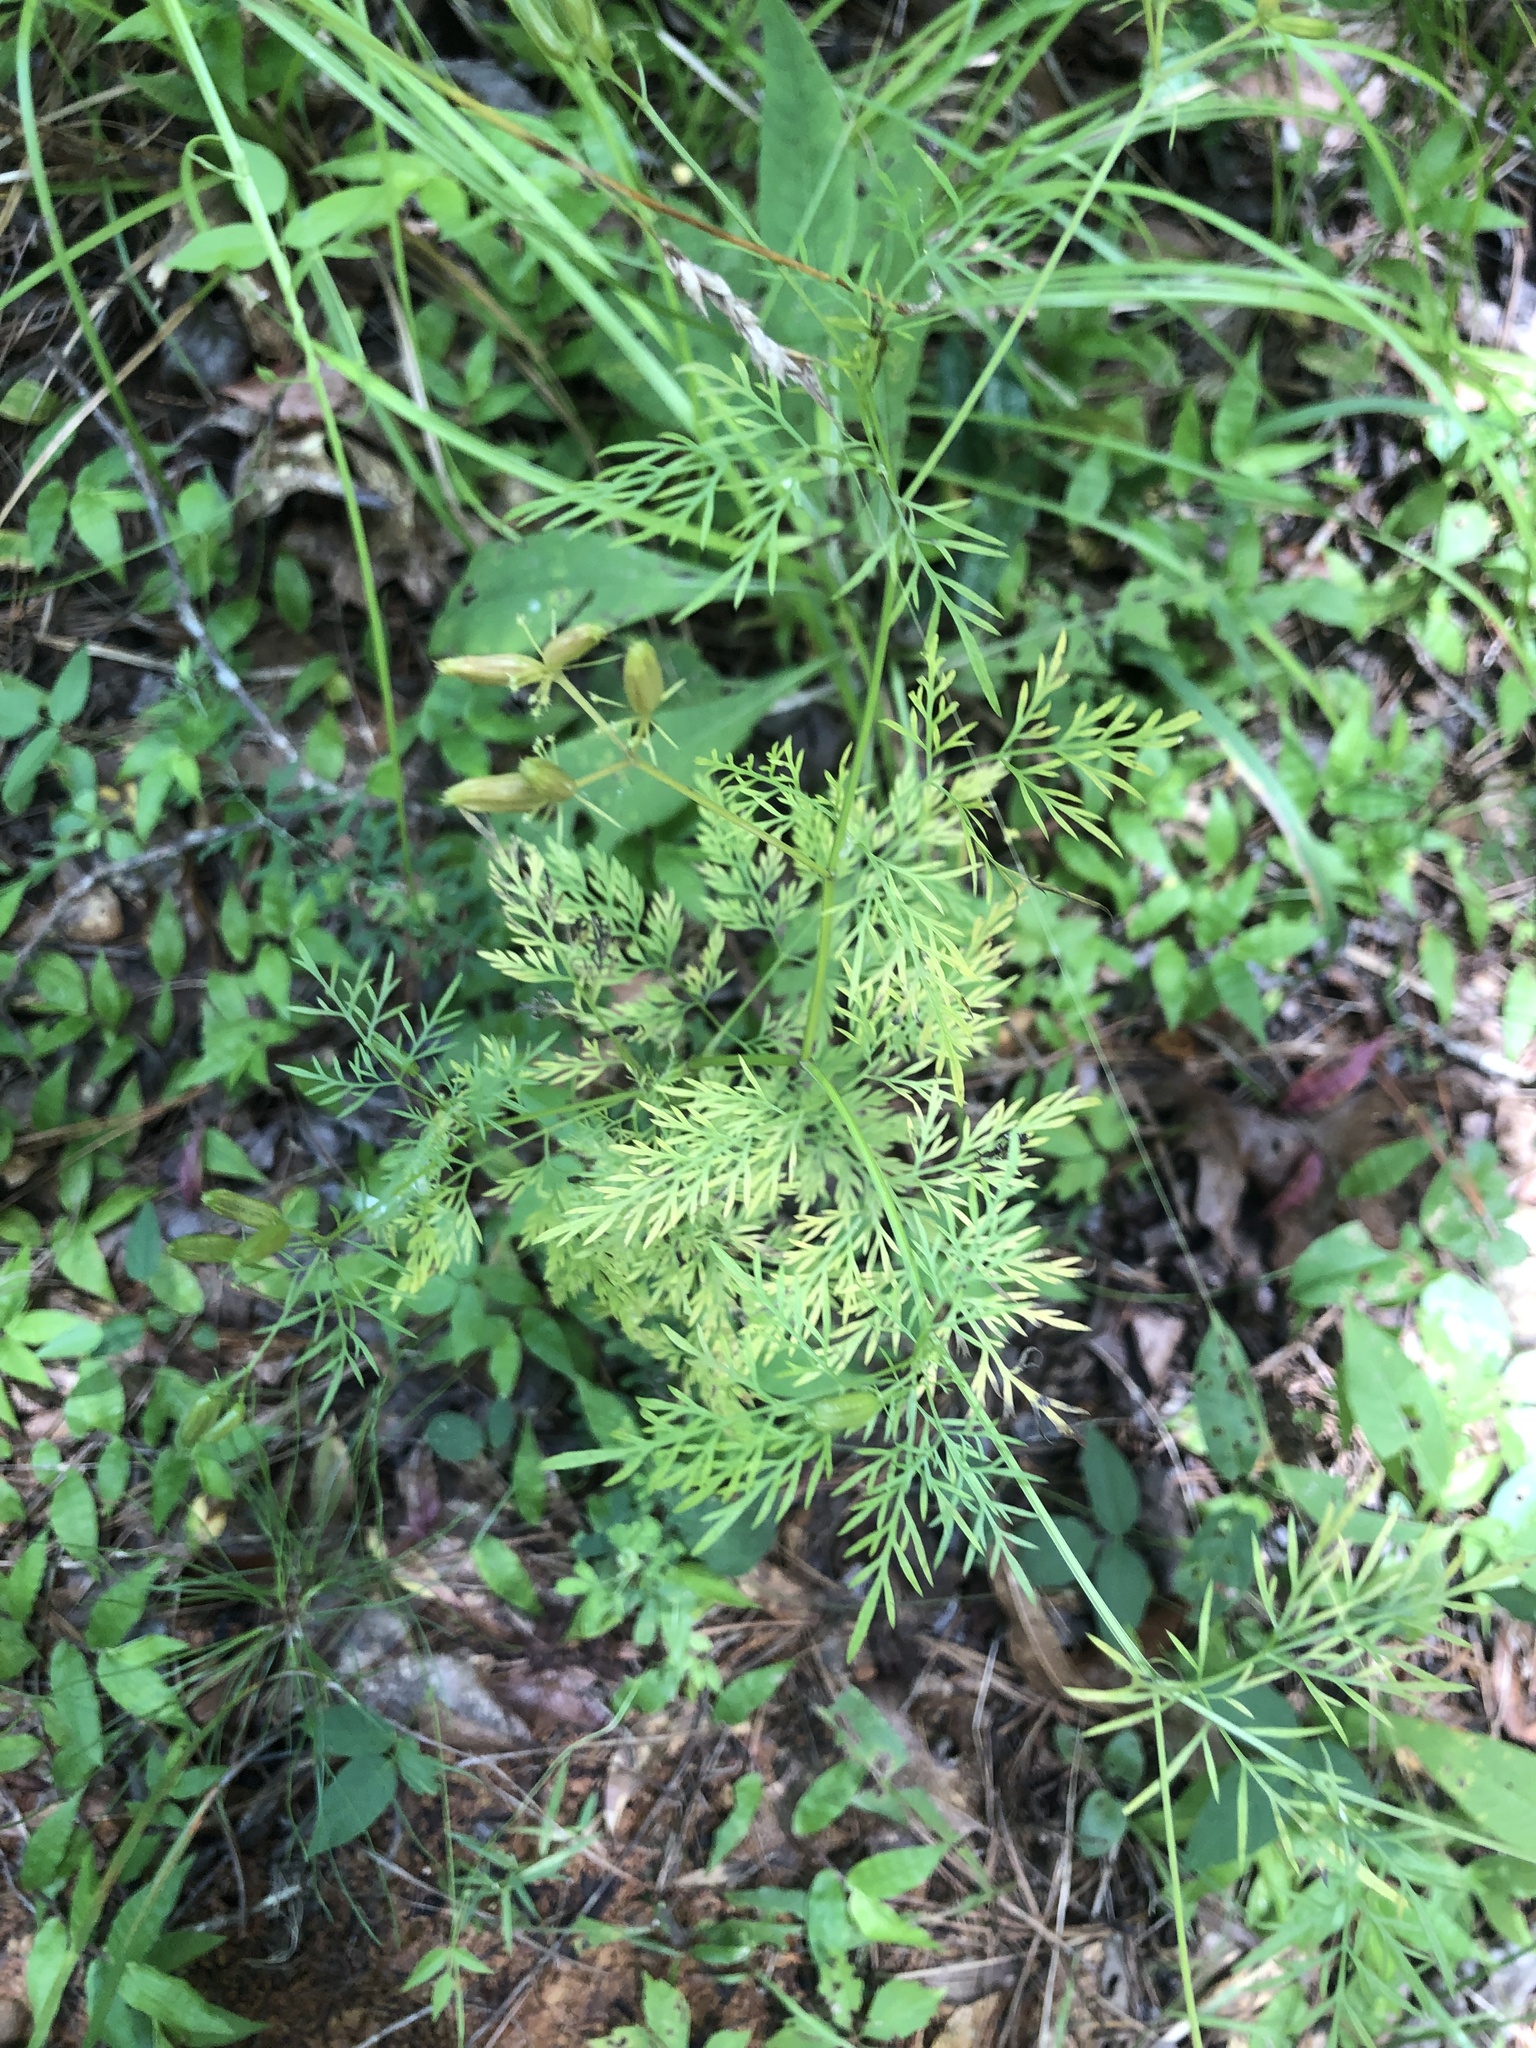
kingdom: Plantae
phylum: Tracheophyta
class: Magnoliopsida
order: Apiales
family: Apiaceae
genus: Trepocarpus
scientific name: Trepocarpus aethusae
